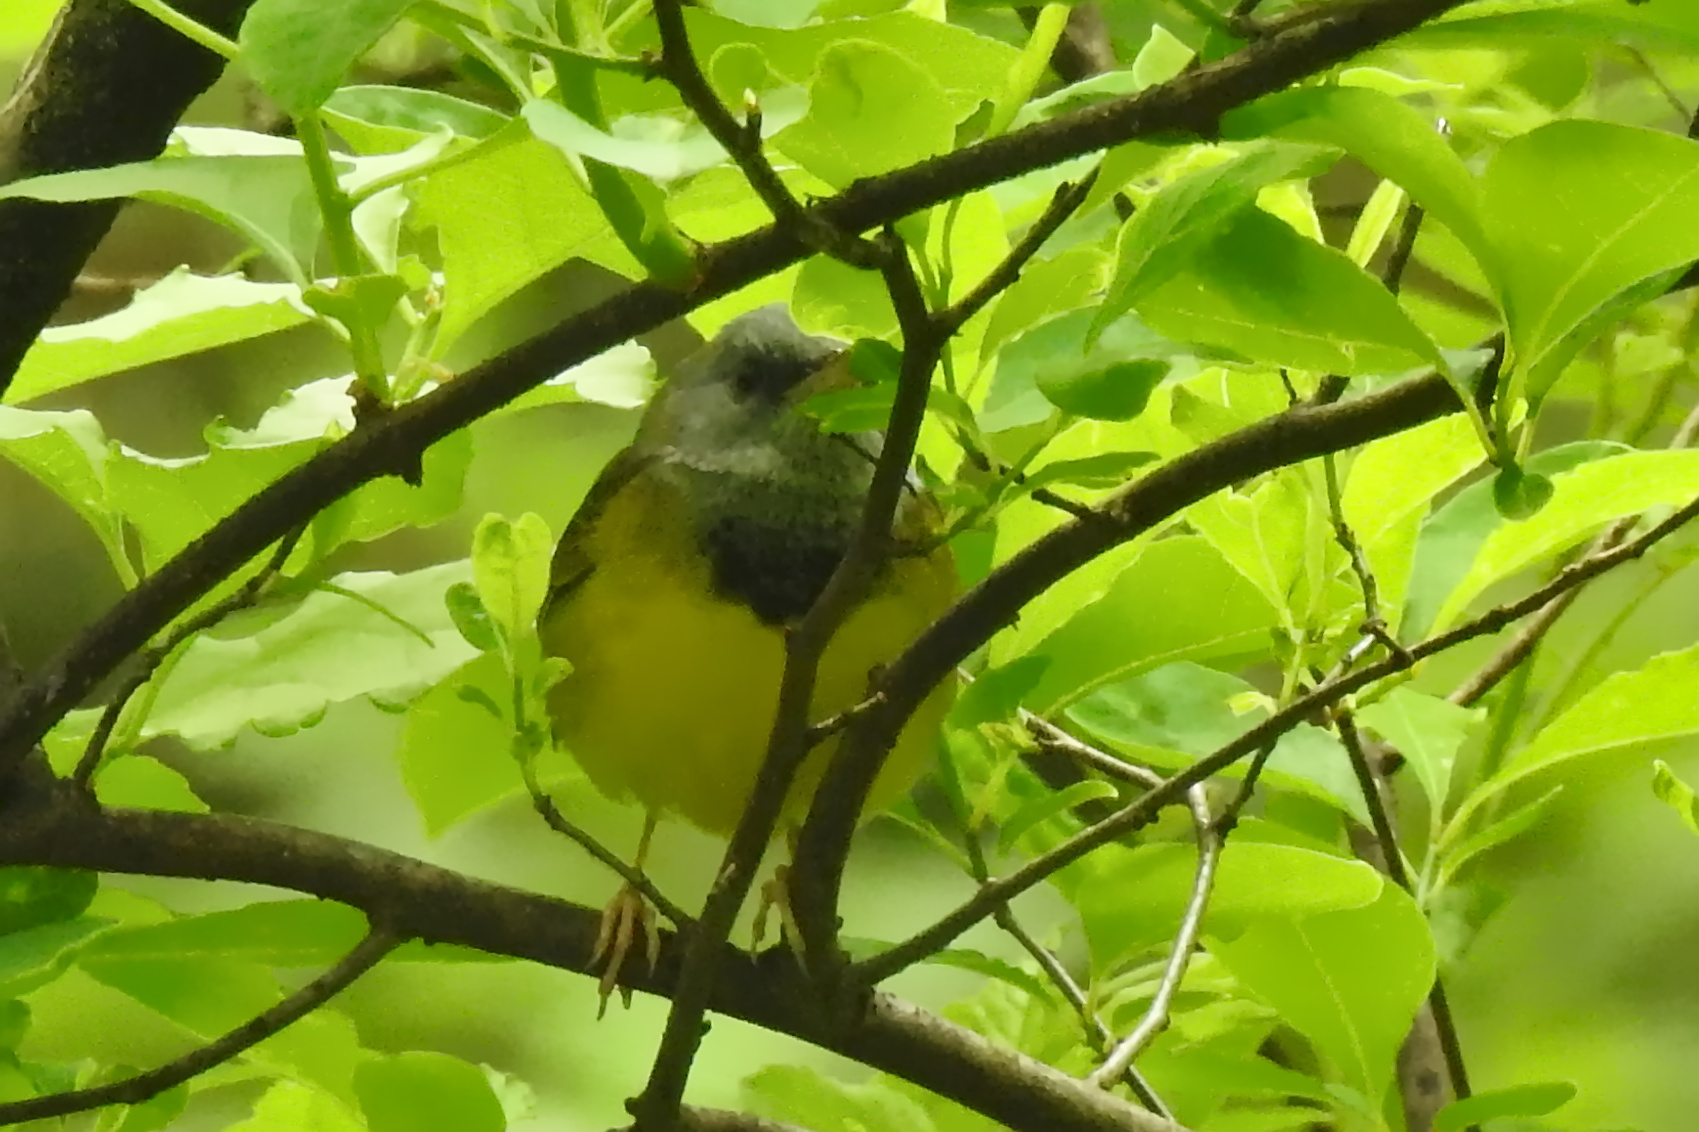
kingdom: Animalia
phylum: Chordata
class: Aves
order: Passeriformes
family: Parulidae
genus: Geothlypis
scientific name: Geothlypis philadelphia
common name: Mourning warbler
